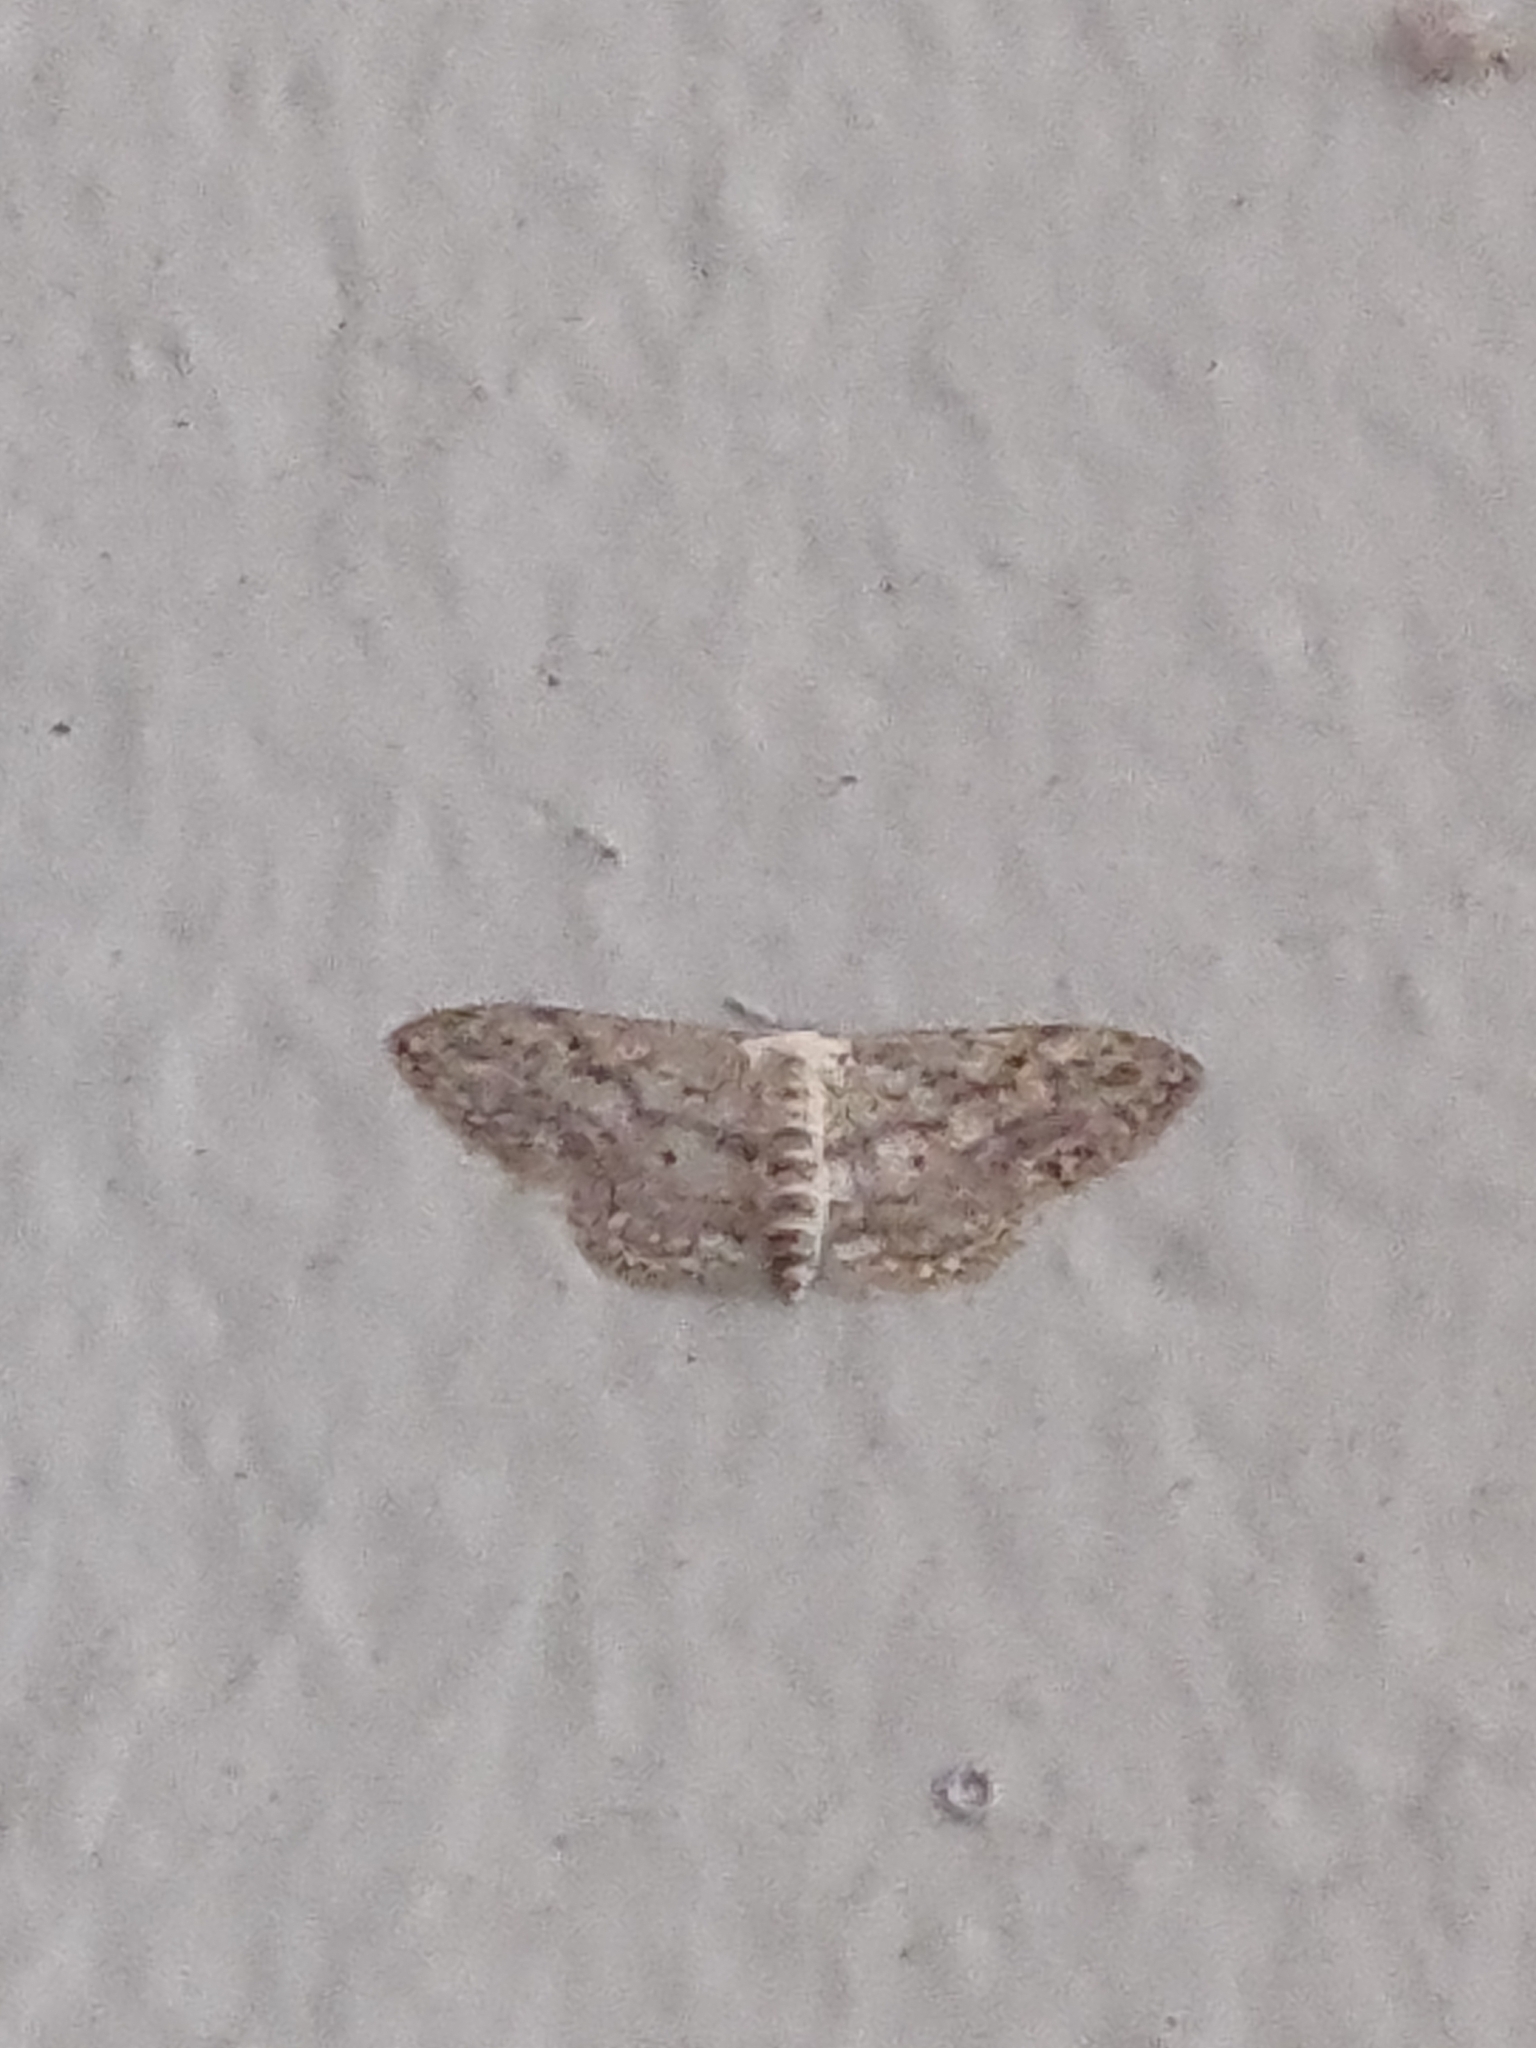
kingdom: Animalia
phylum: Arthropoda
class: Insecta
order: Lepidoptera
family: Geometridae
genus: Idaea
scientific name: Idaea seriata
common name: Small dusty wave
